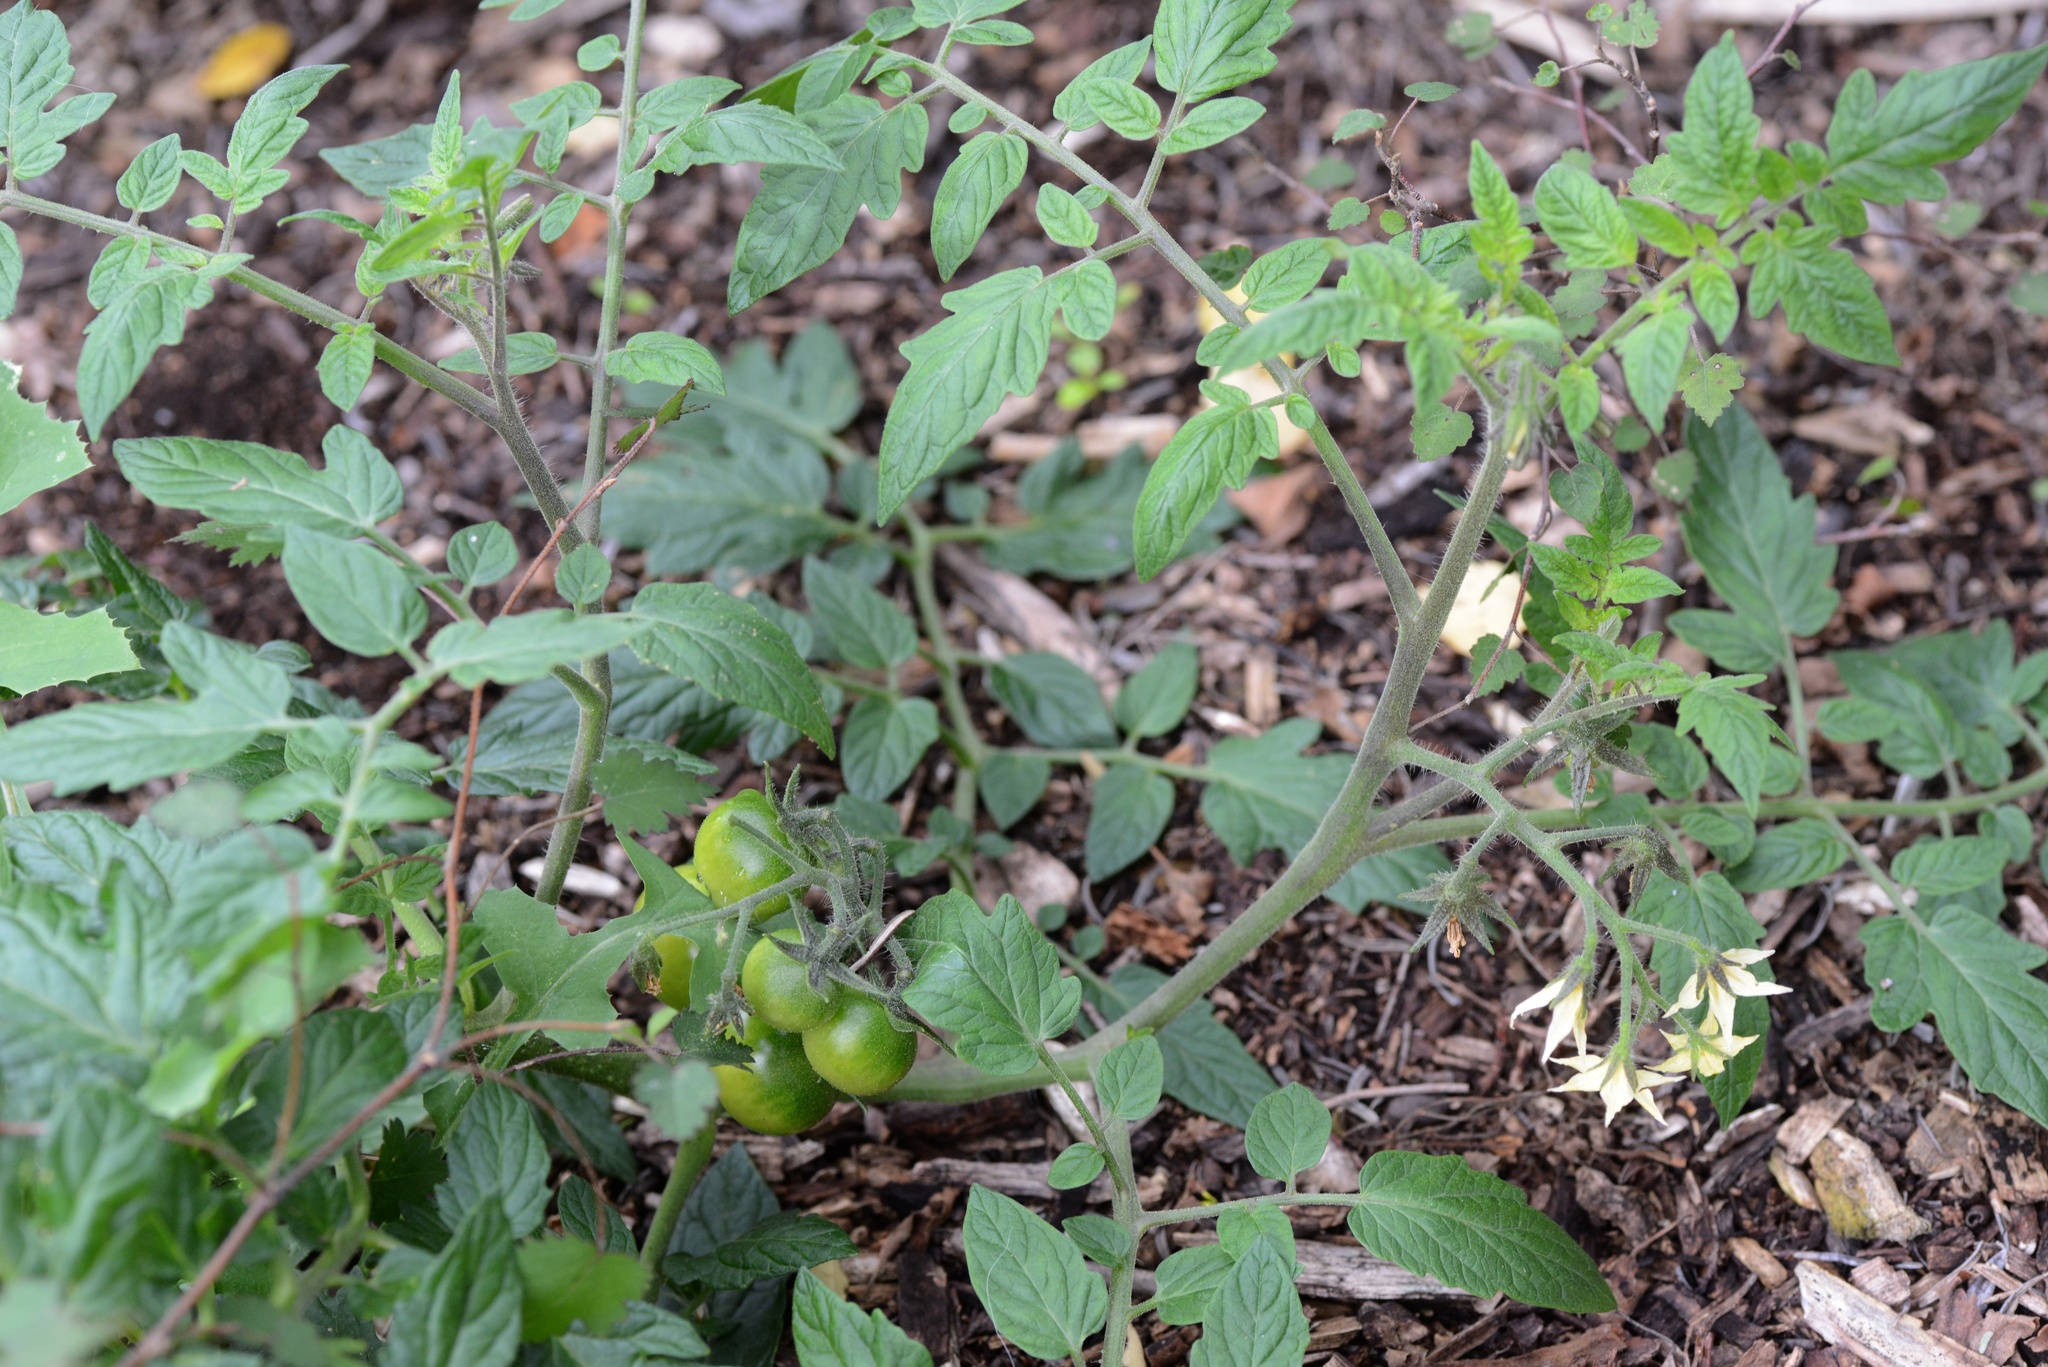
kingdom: Plantae
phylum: Tracheophyta
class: Magnoliopsida
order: Solanales
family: Solanaceae
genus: Solanum
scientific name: Solanum lycopersicum
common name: Garden tomato
